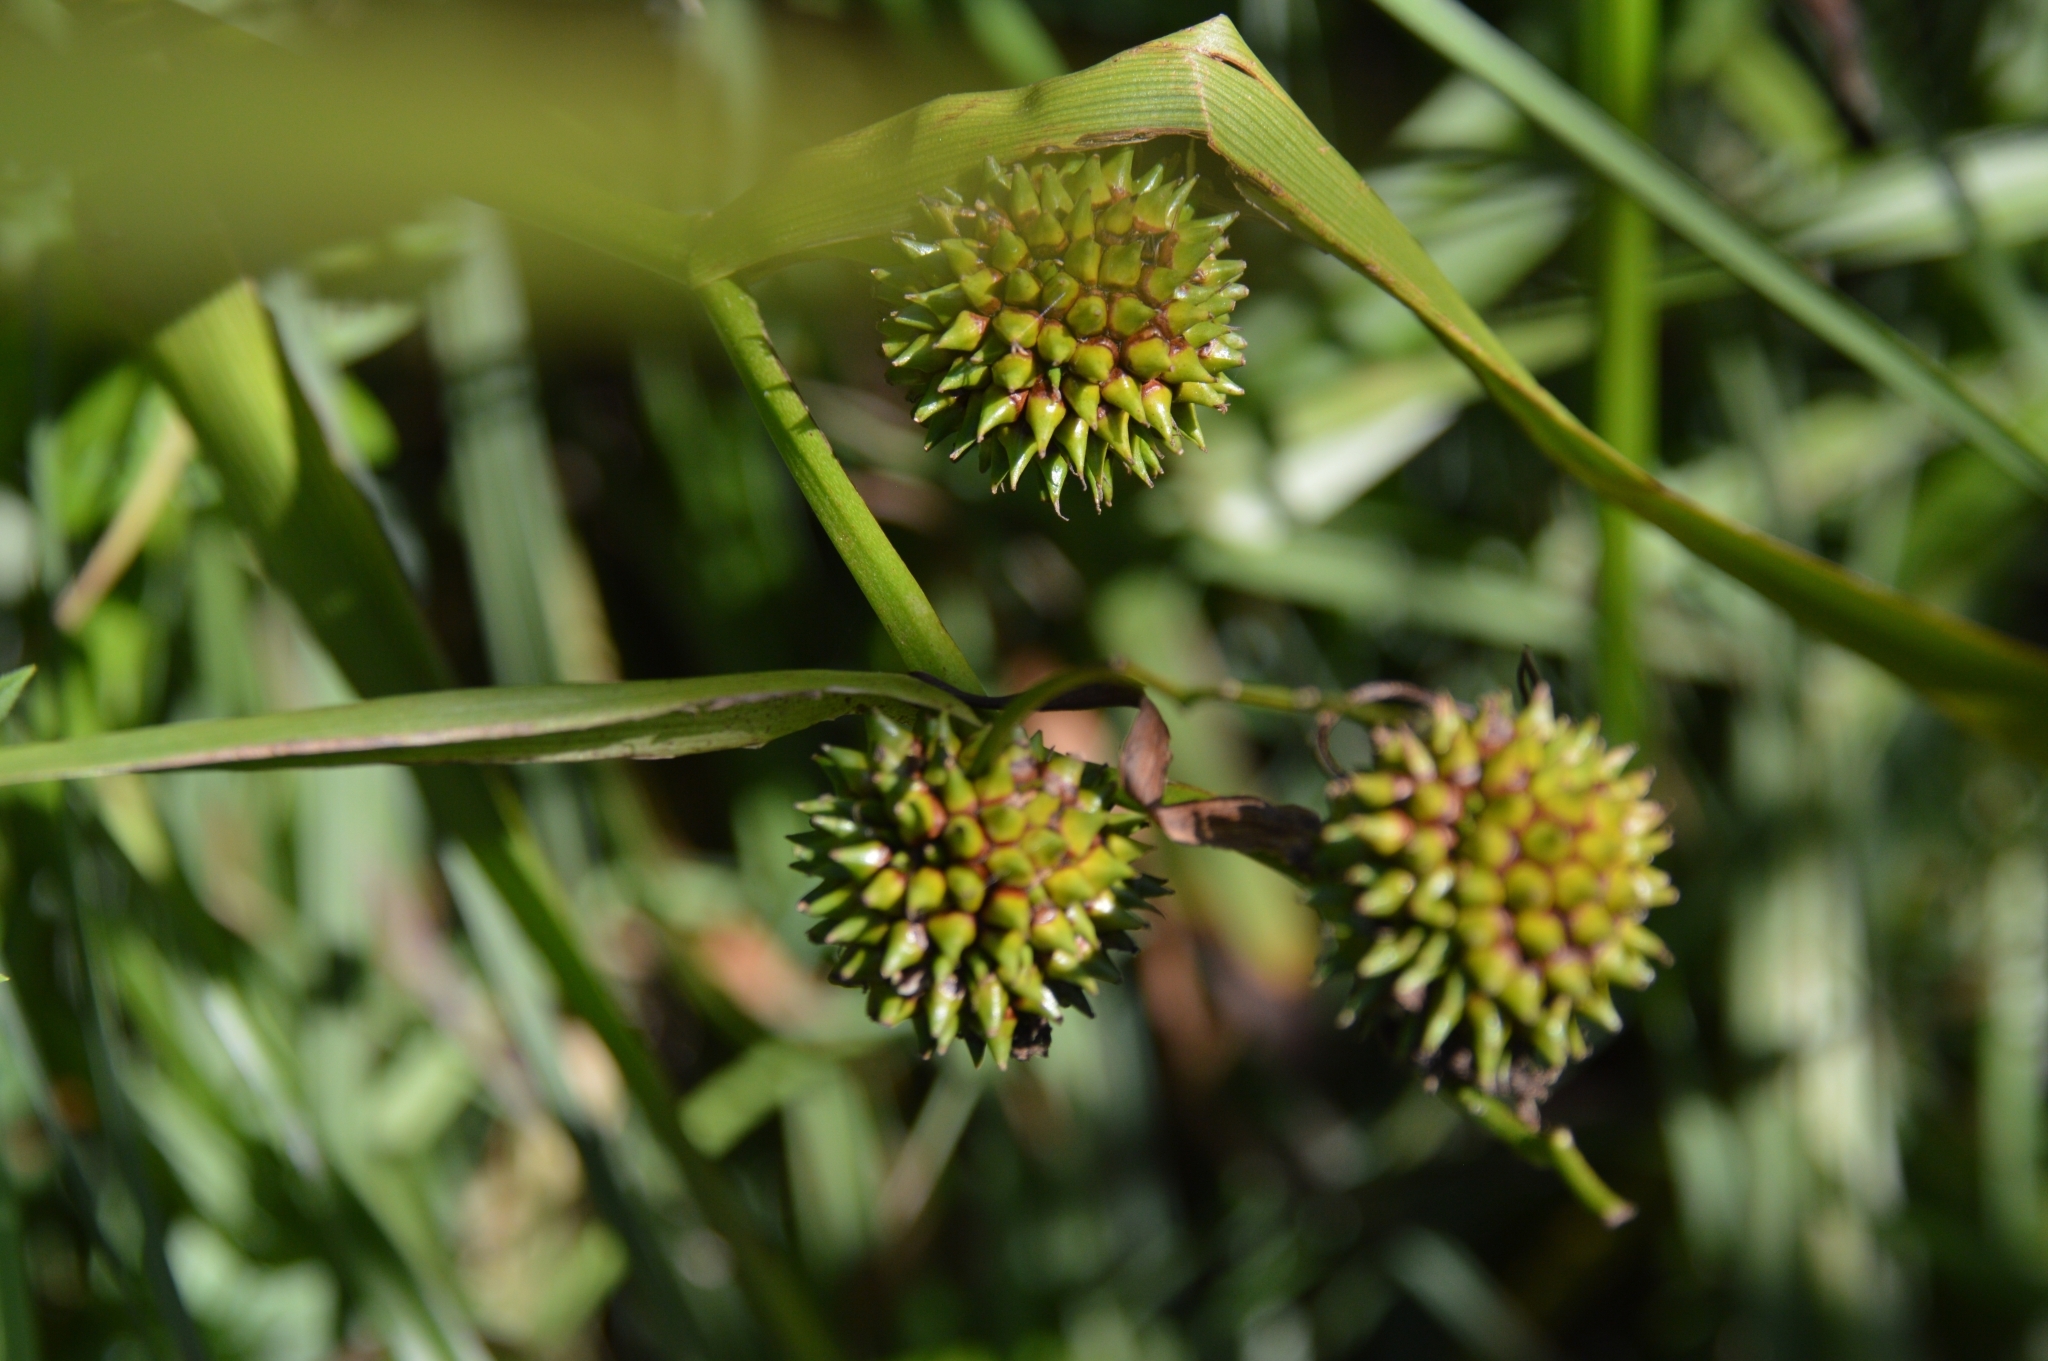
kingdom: Plantae
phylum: Tracheophyta
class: Liliopsida
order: Poales
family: Typhaceae
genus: Sparganium
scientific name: Sparganium emersum
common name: Unbranched bur-reed
